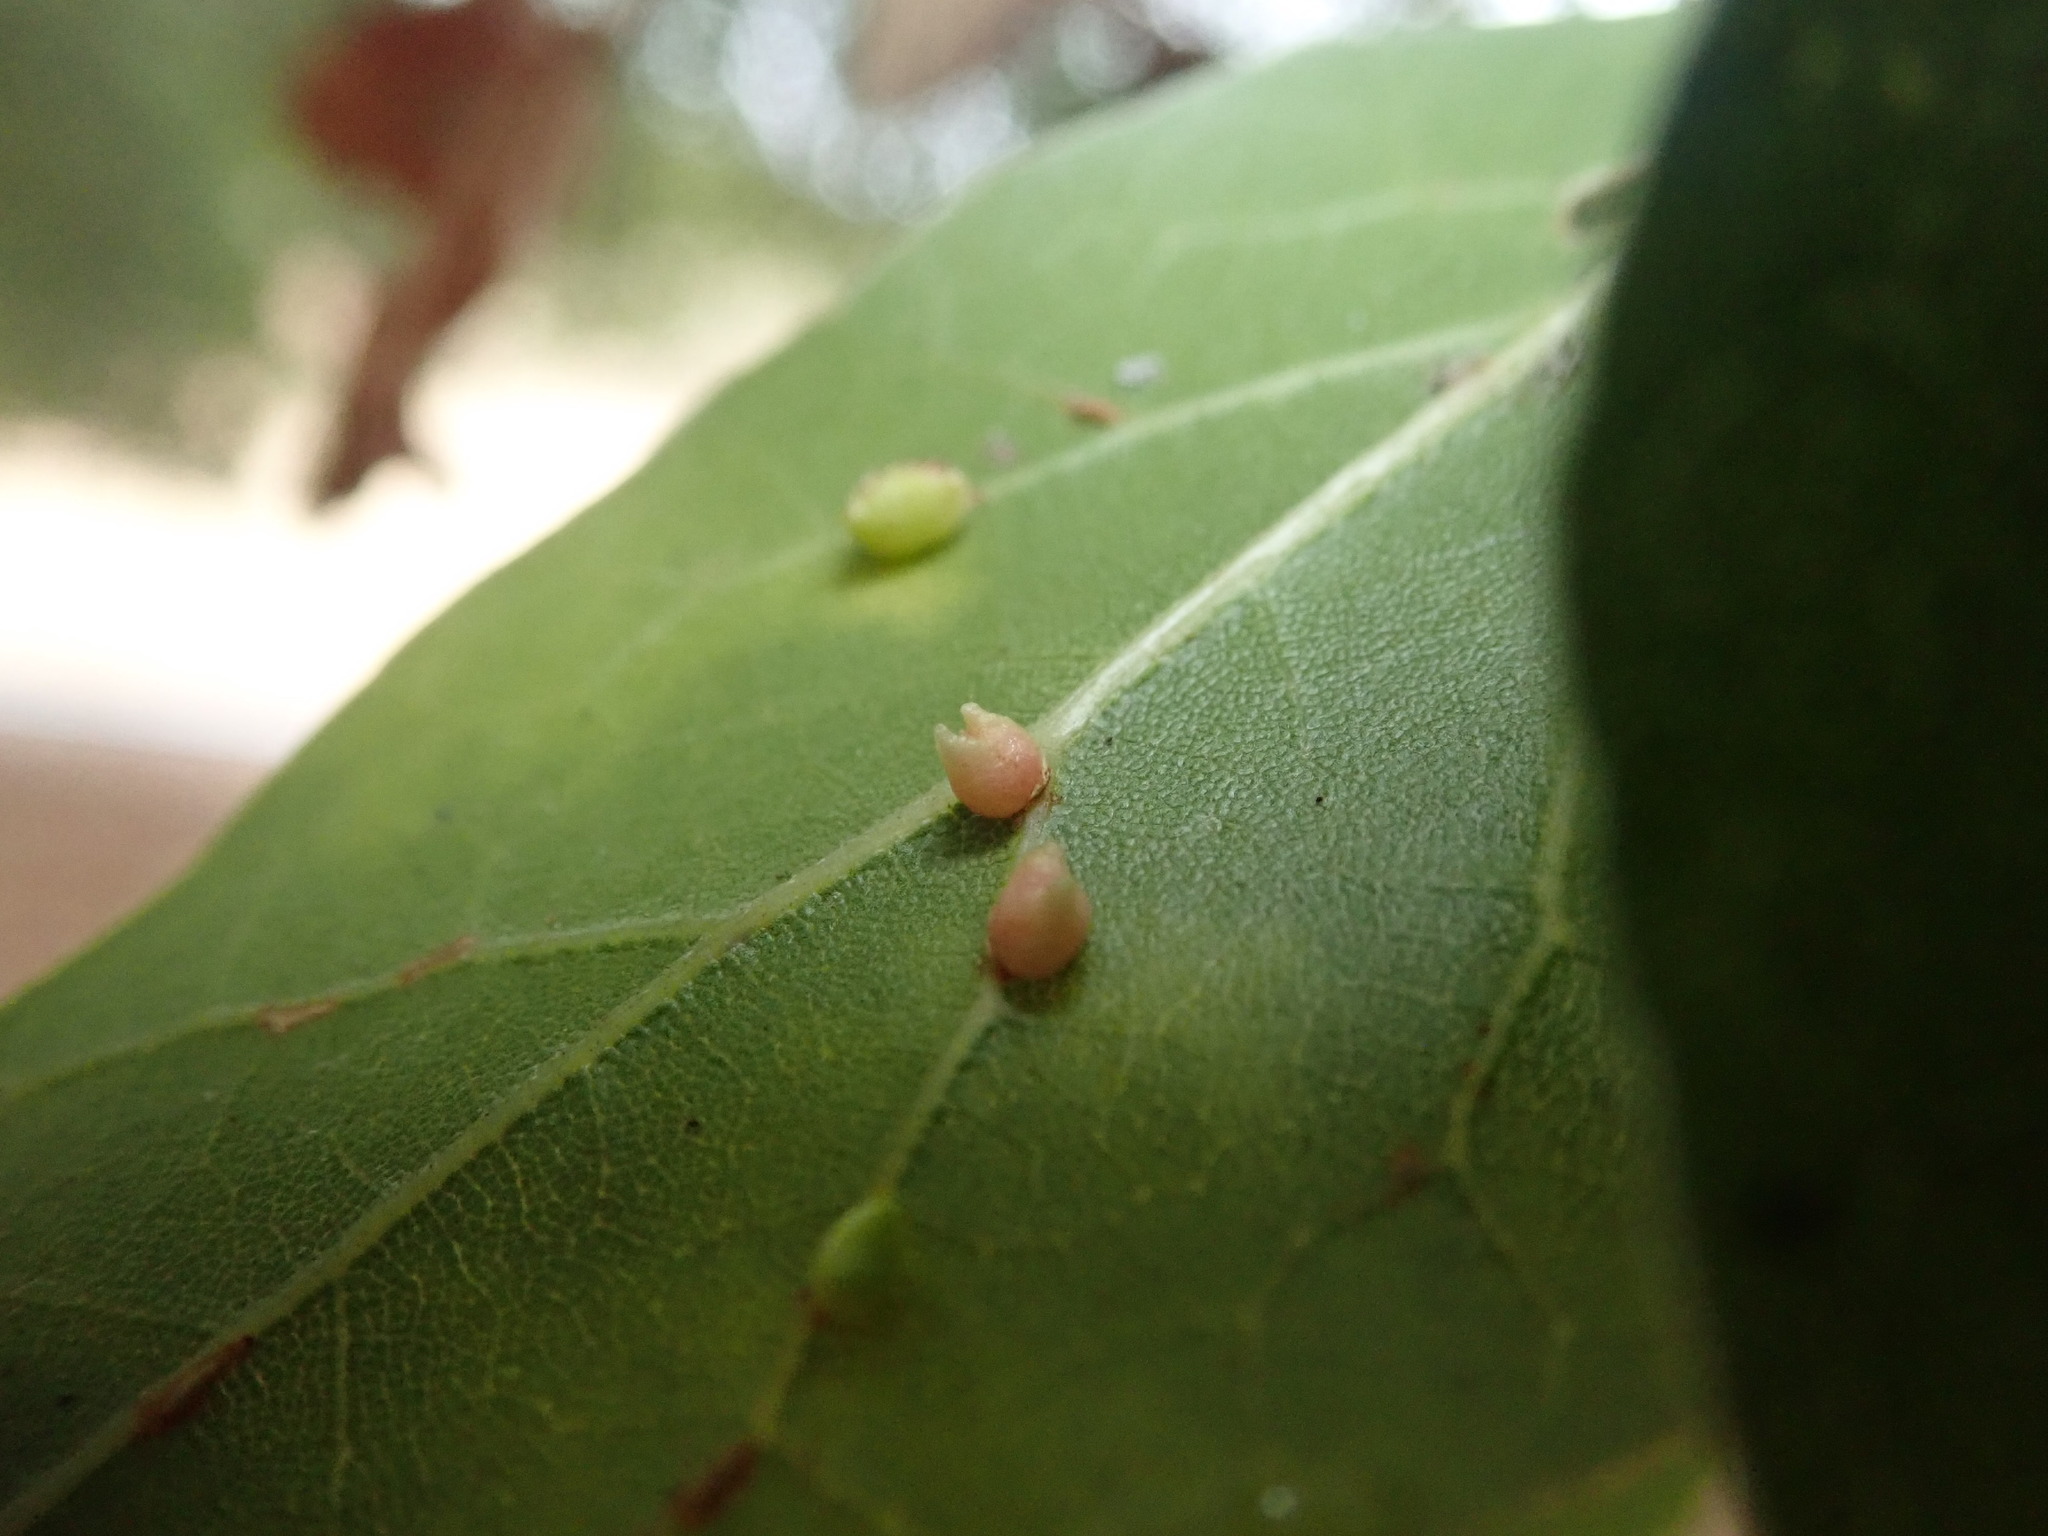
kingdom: Animalia
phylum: Arthropoda
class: Insecta
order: Hymenoptera
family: Cynipidae
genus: Dryocosmus
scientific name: Dryocosmus
